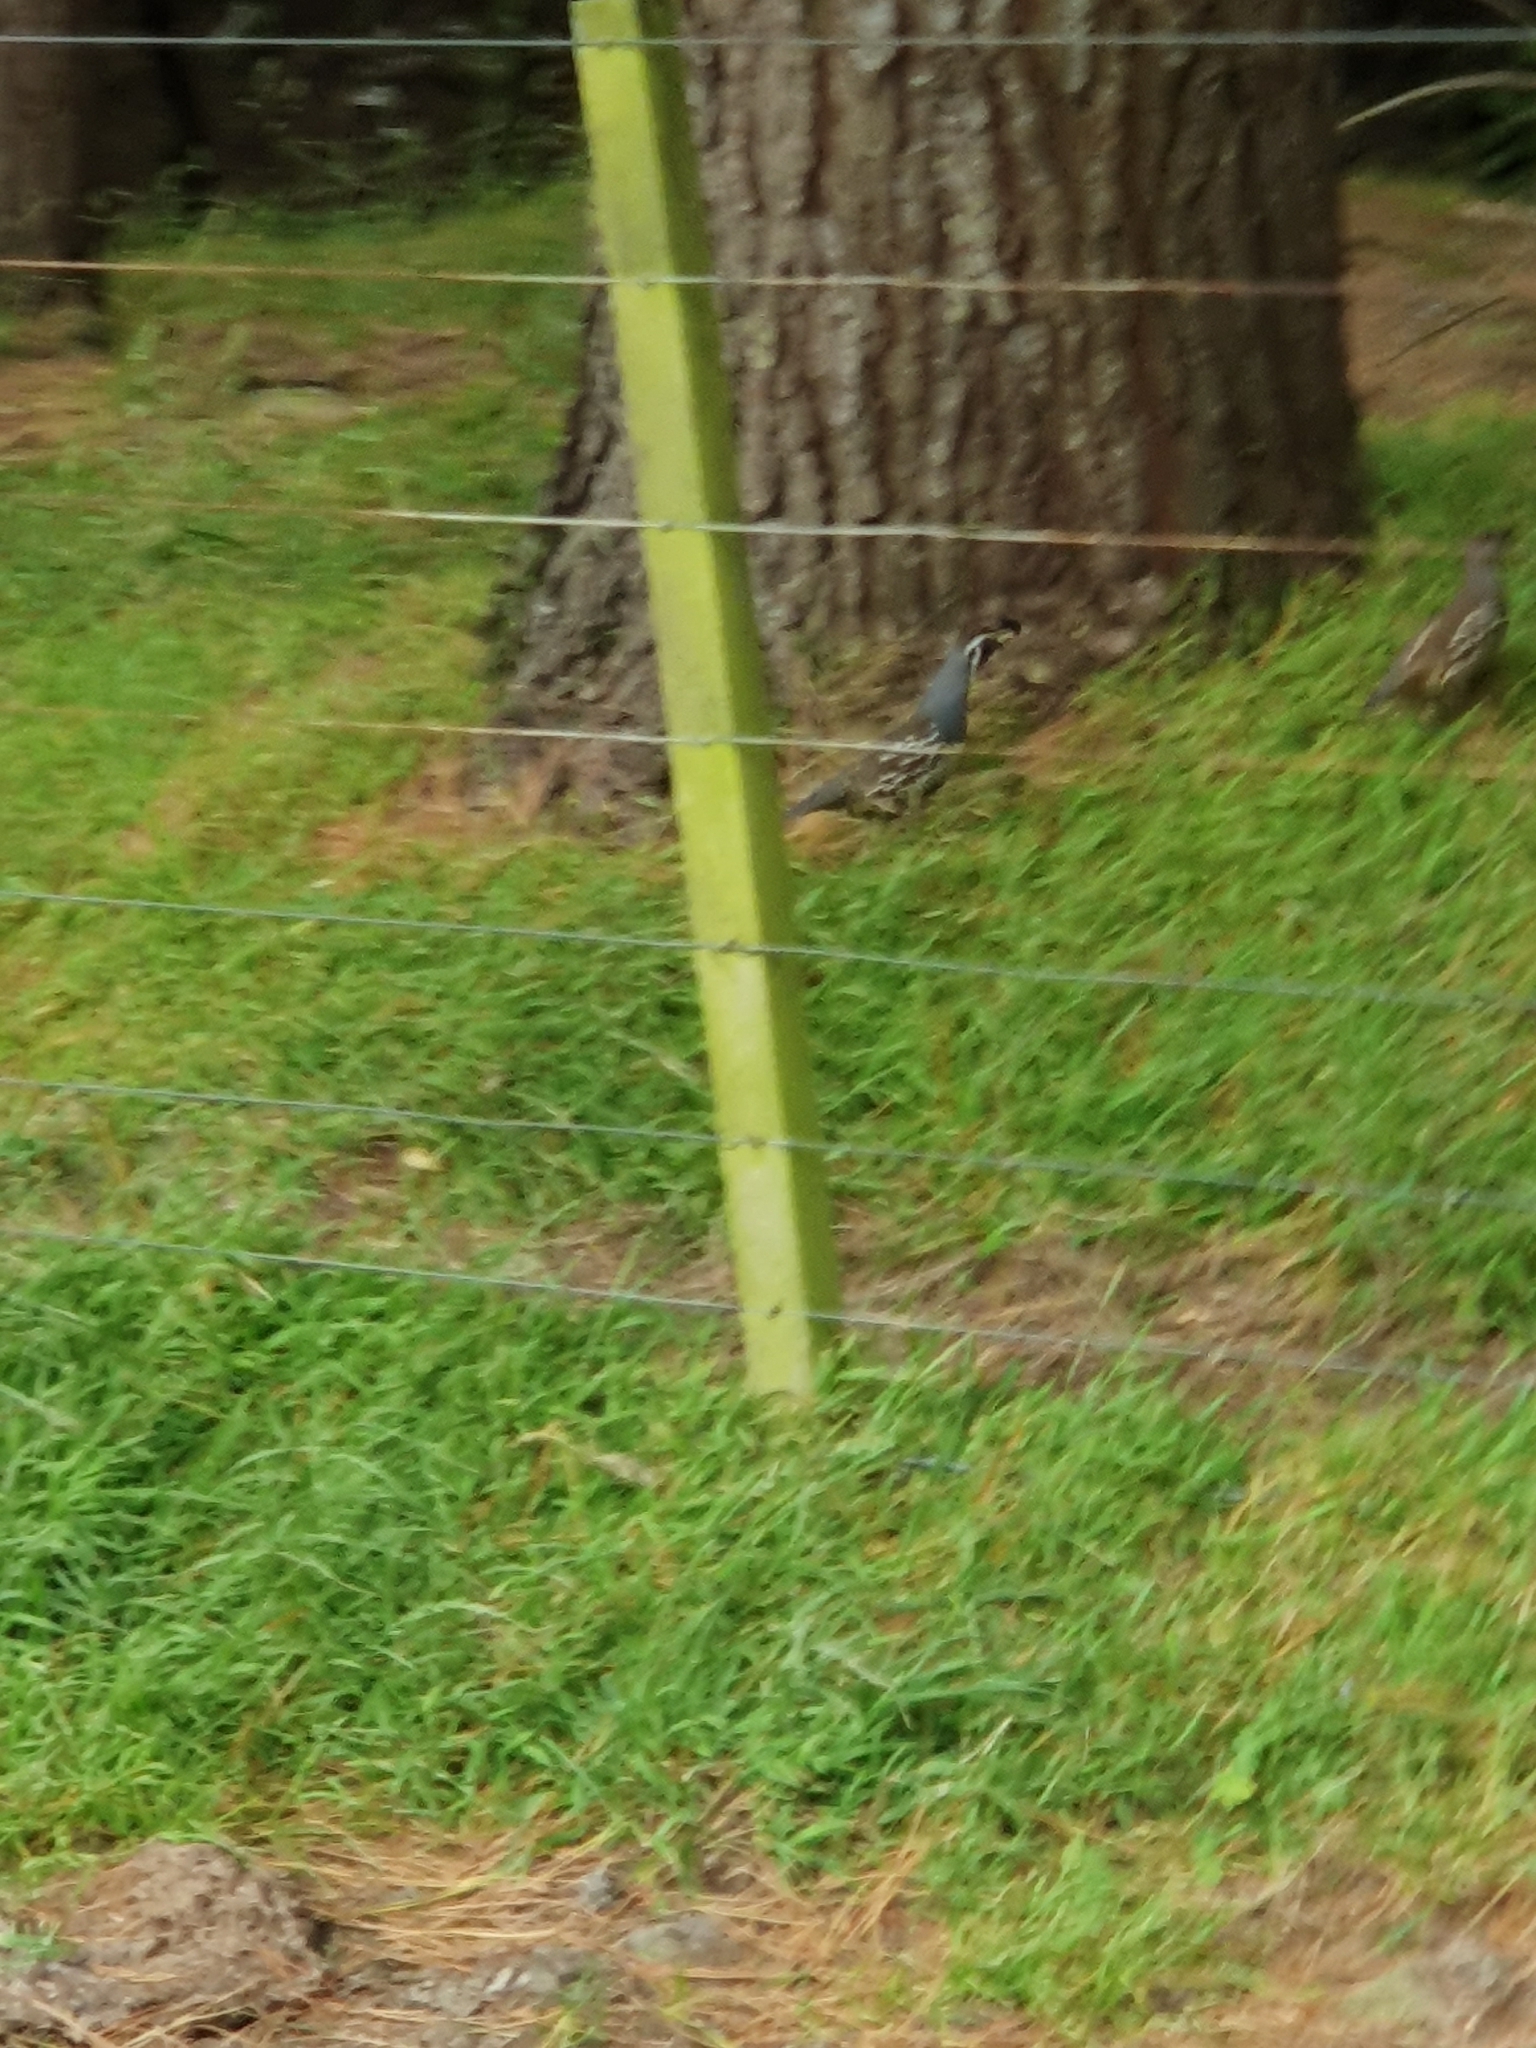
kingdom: Animalia
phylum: Chordata
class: Aves
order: Galliformes
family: Odontophoridae
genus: Callipepla
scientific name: Callipepla californica
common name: California quail
